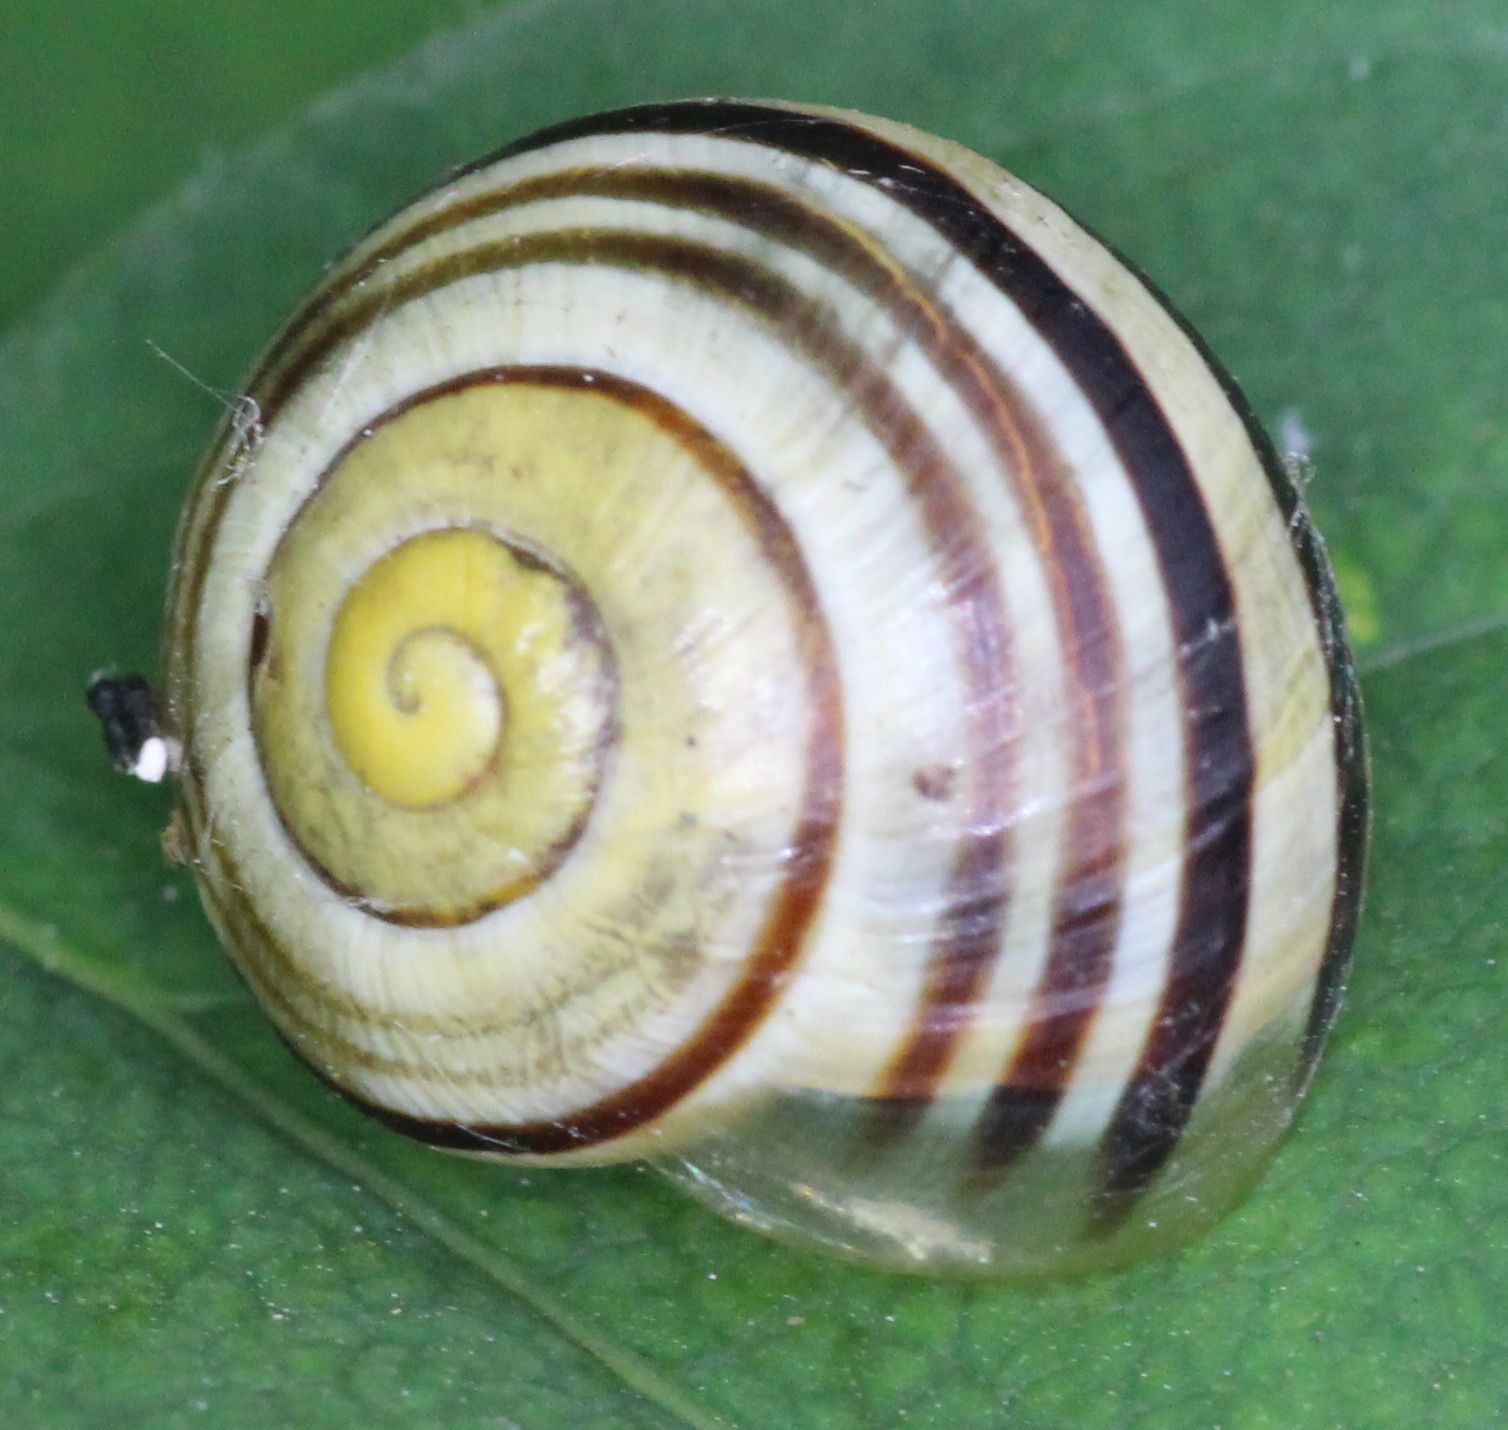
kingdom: Animalia
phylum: Mollusca
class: Gastropoda
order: Stylommatophora
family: Helicidae
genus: Cepaea
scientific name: Cepaea
